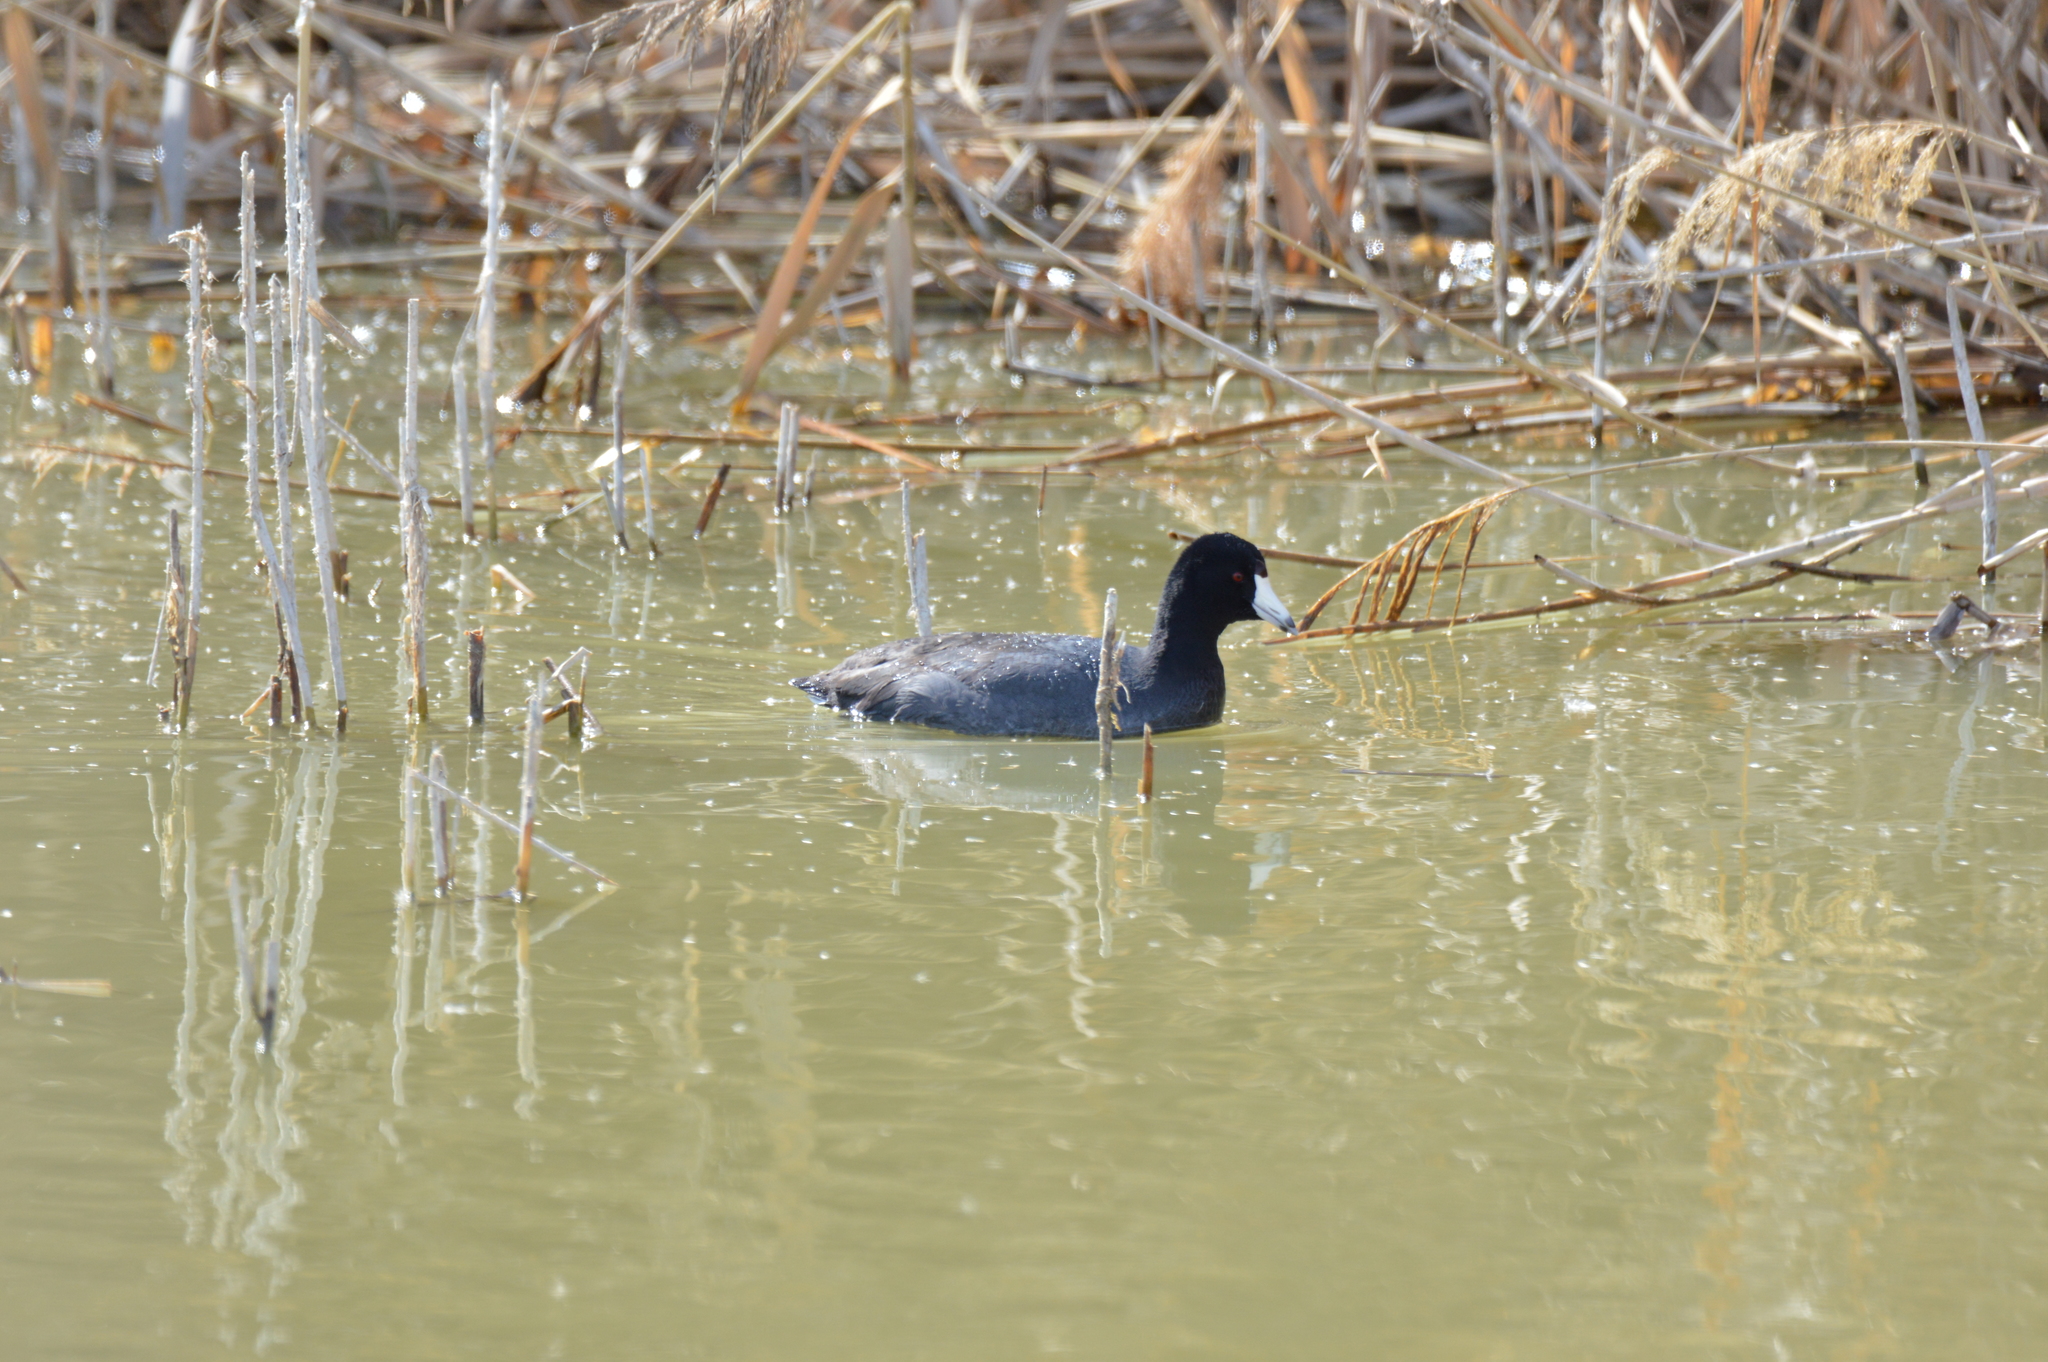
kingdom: Animalia
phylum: Chordata
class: Aves
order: Gruiformes
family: Rallidae
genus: Fulica
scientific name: Fulica americana
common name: American coot
